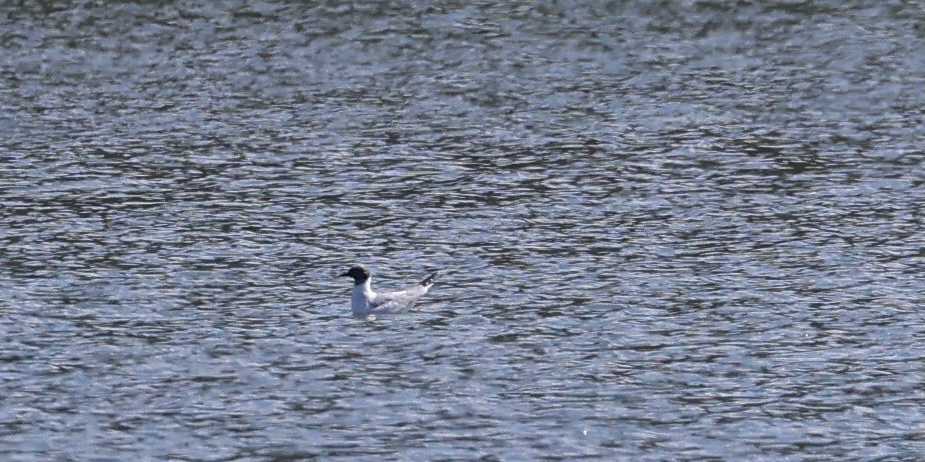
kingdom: Animalia
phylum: Chordata
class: Aves
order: Charadriiformes
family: Laridae
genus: Chroicocephalus
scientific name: Chroicocephalus philadelphia
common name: Bonaparte's gull
